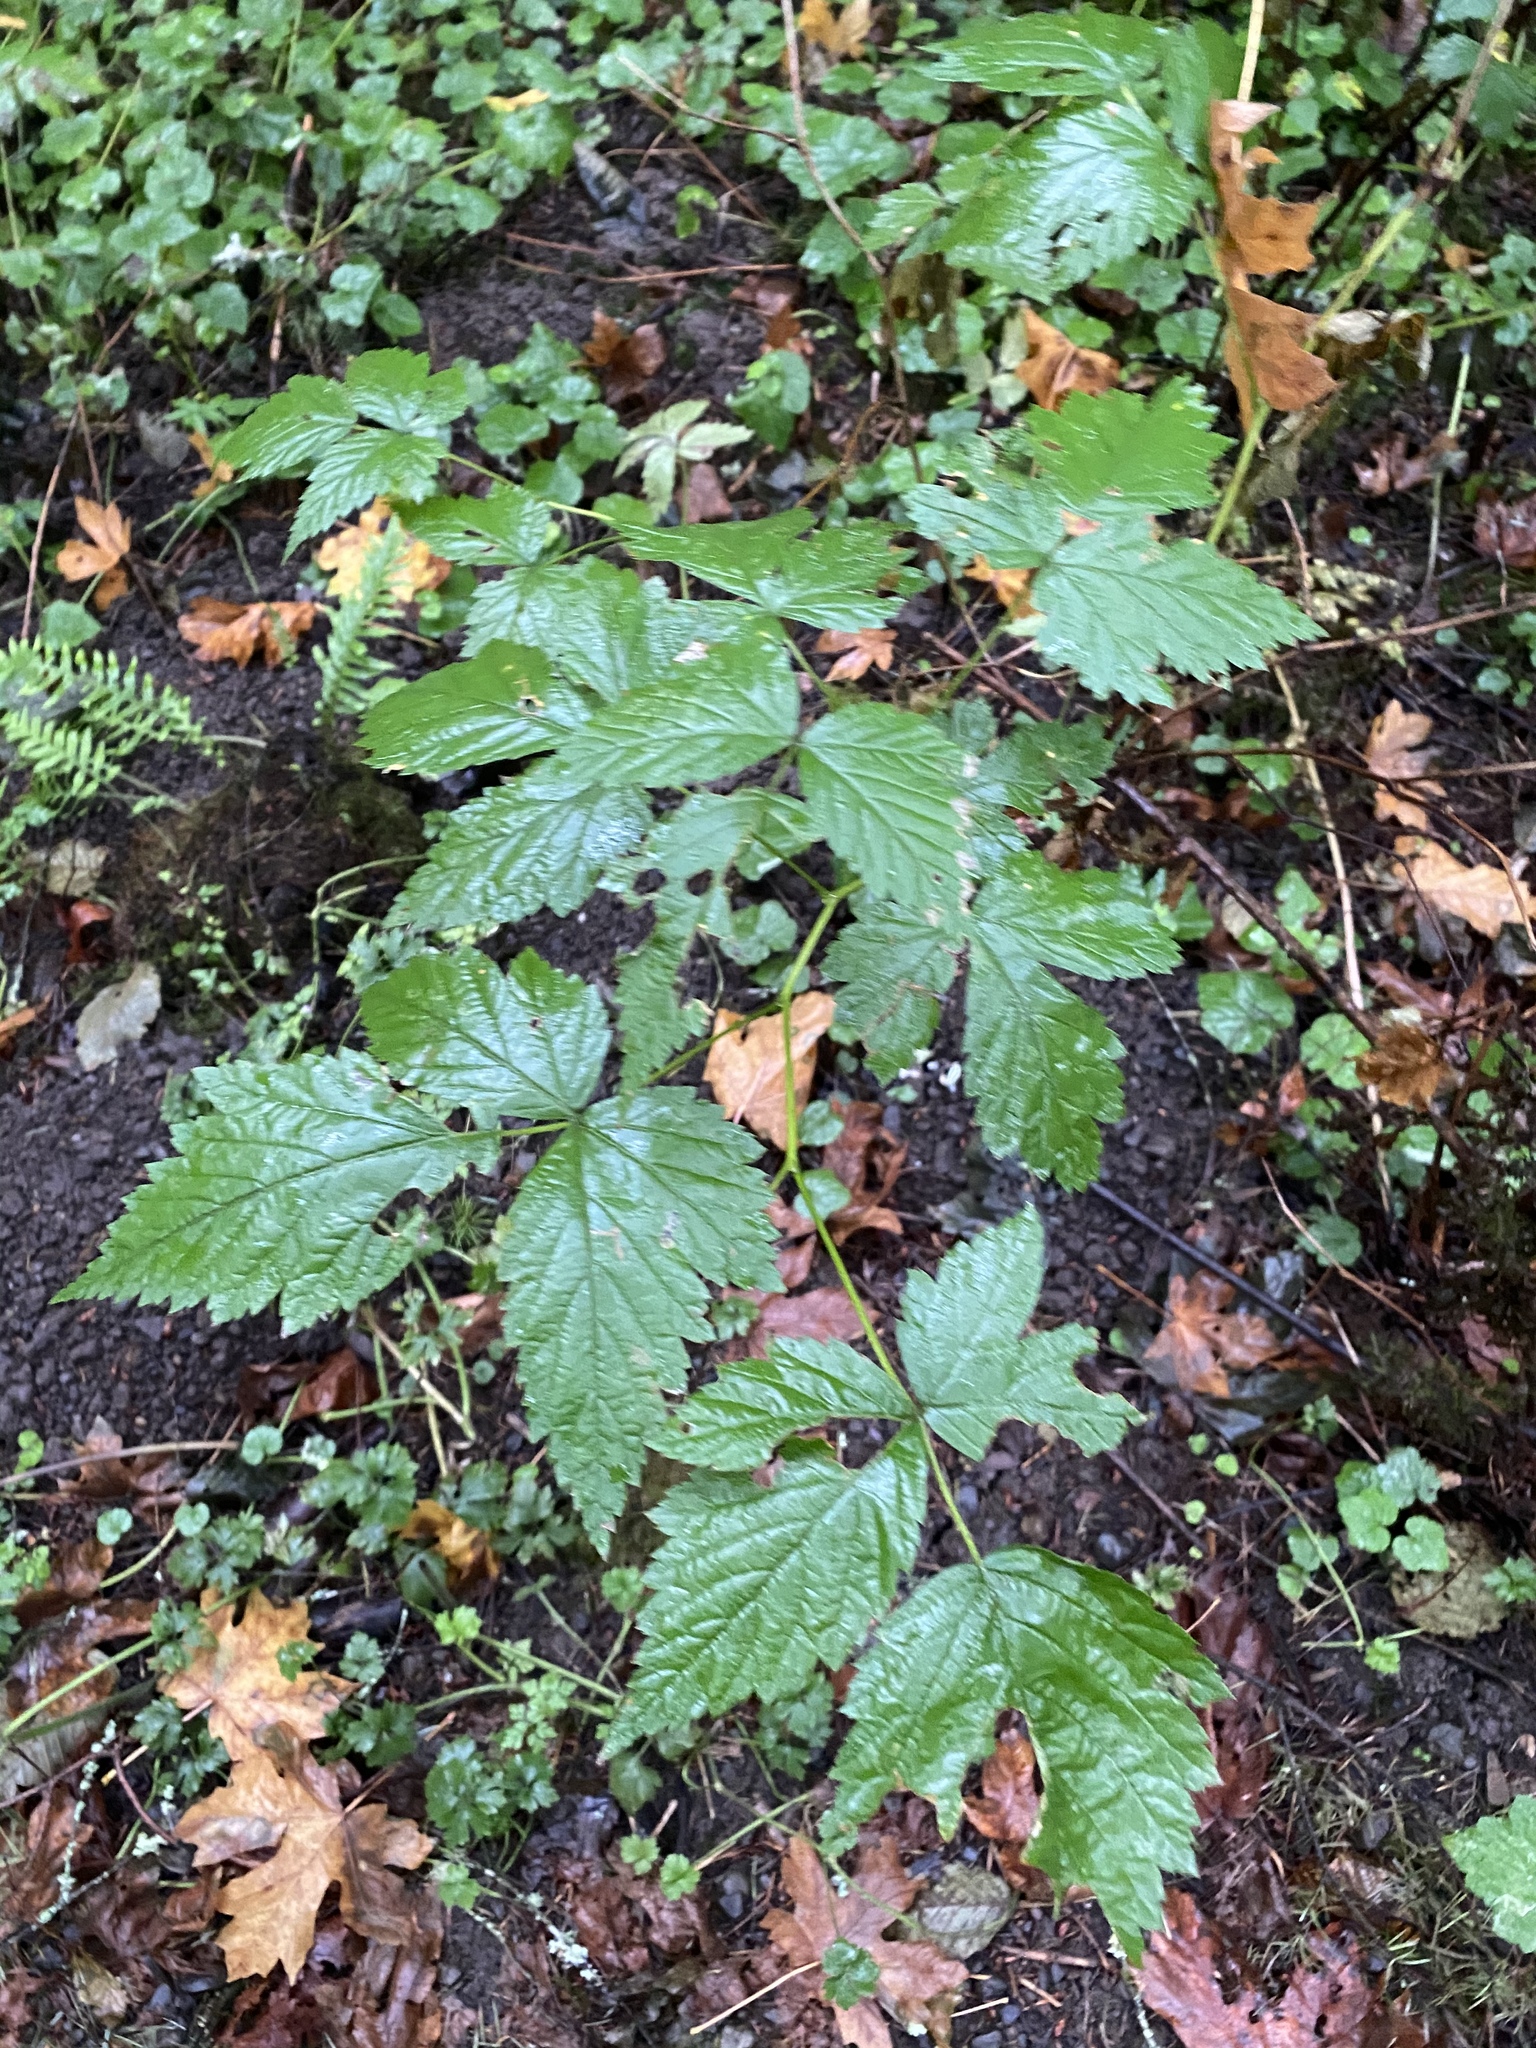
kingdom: Plantae
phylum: Tracheophyta
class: Magnoliopsida
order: Rosales
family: Rosaceae
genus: Rubus
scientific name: Rubus spectabilis
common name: Salmonberry
